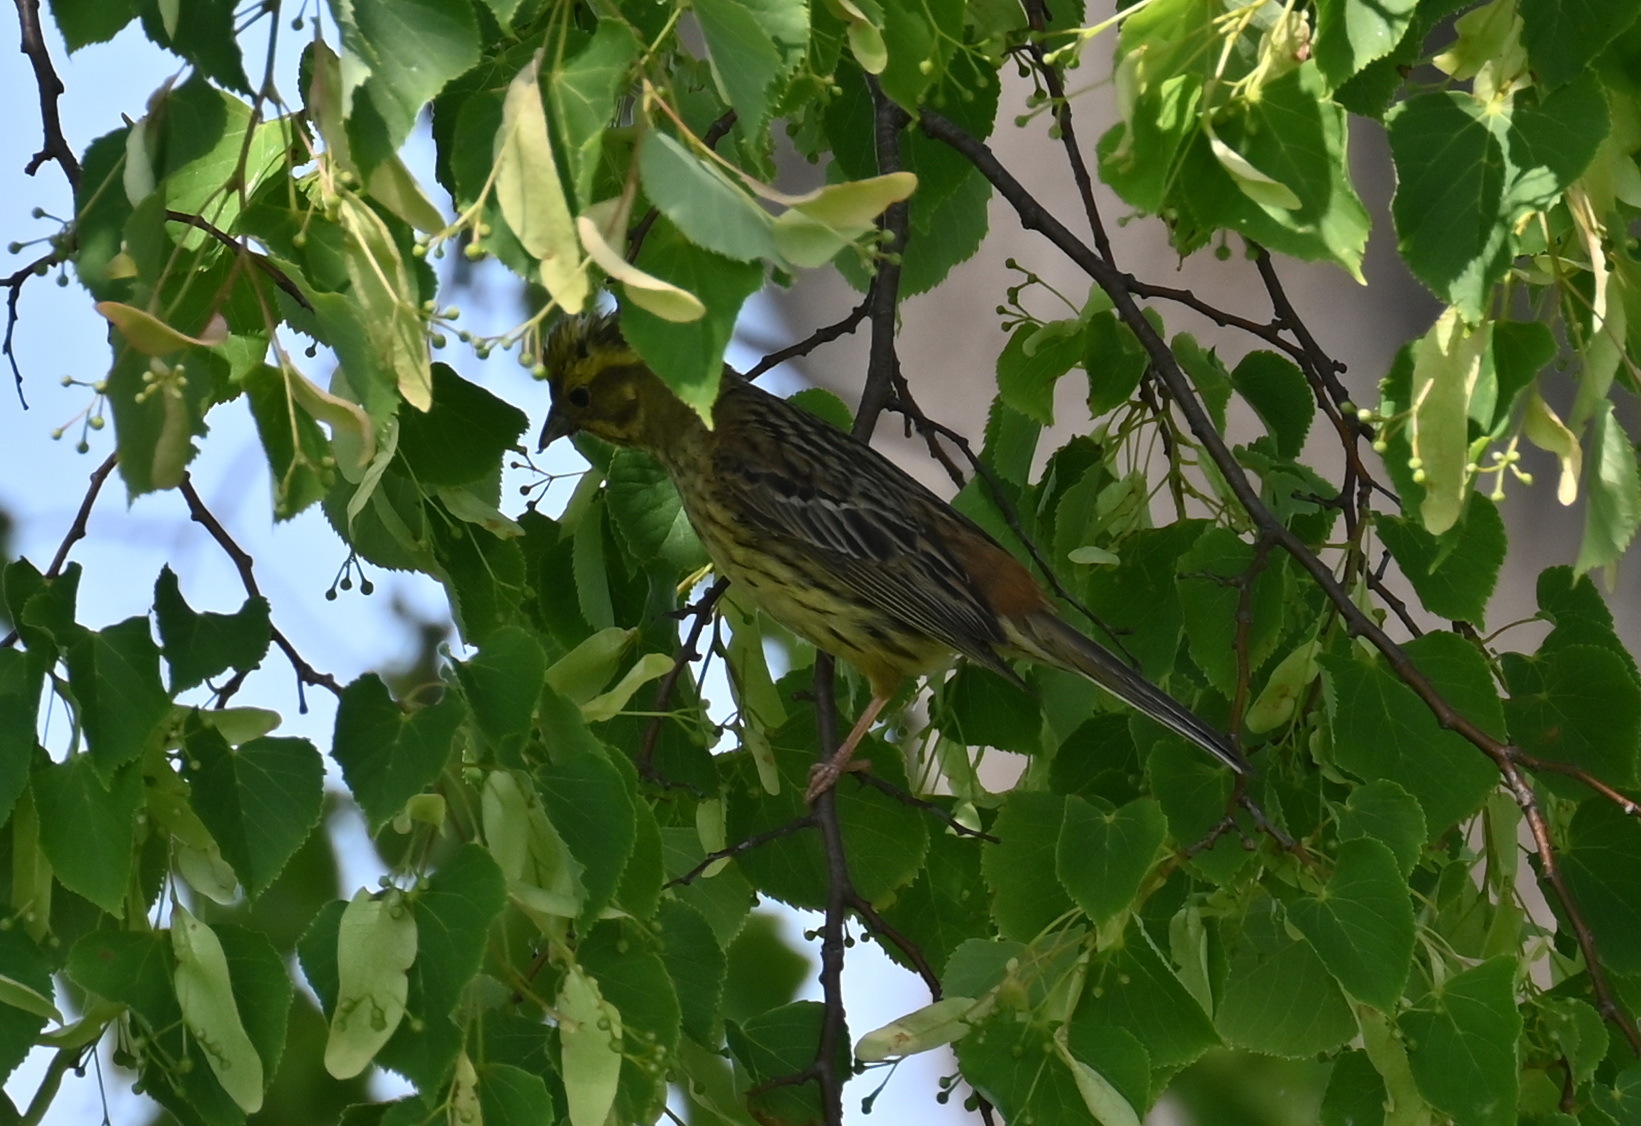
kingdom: Animalia
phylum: Chordata
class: Aves
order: Passeriformes
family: Emberizidae
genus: Emberiza
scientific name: Emberiza citrinella
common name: Yellowhammer
